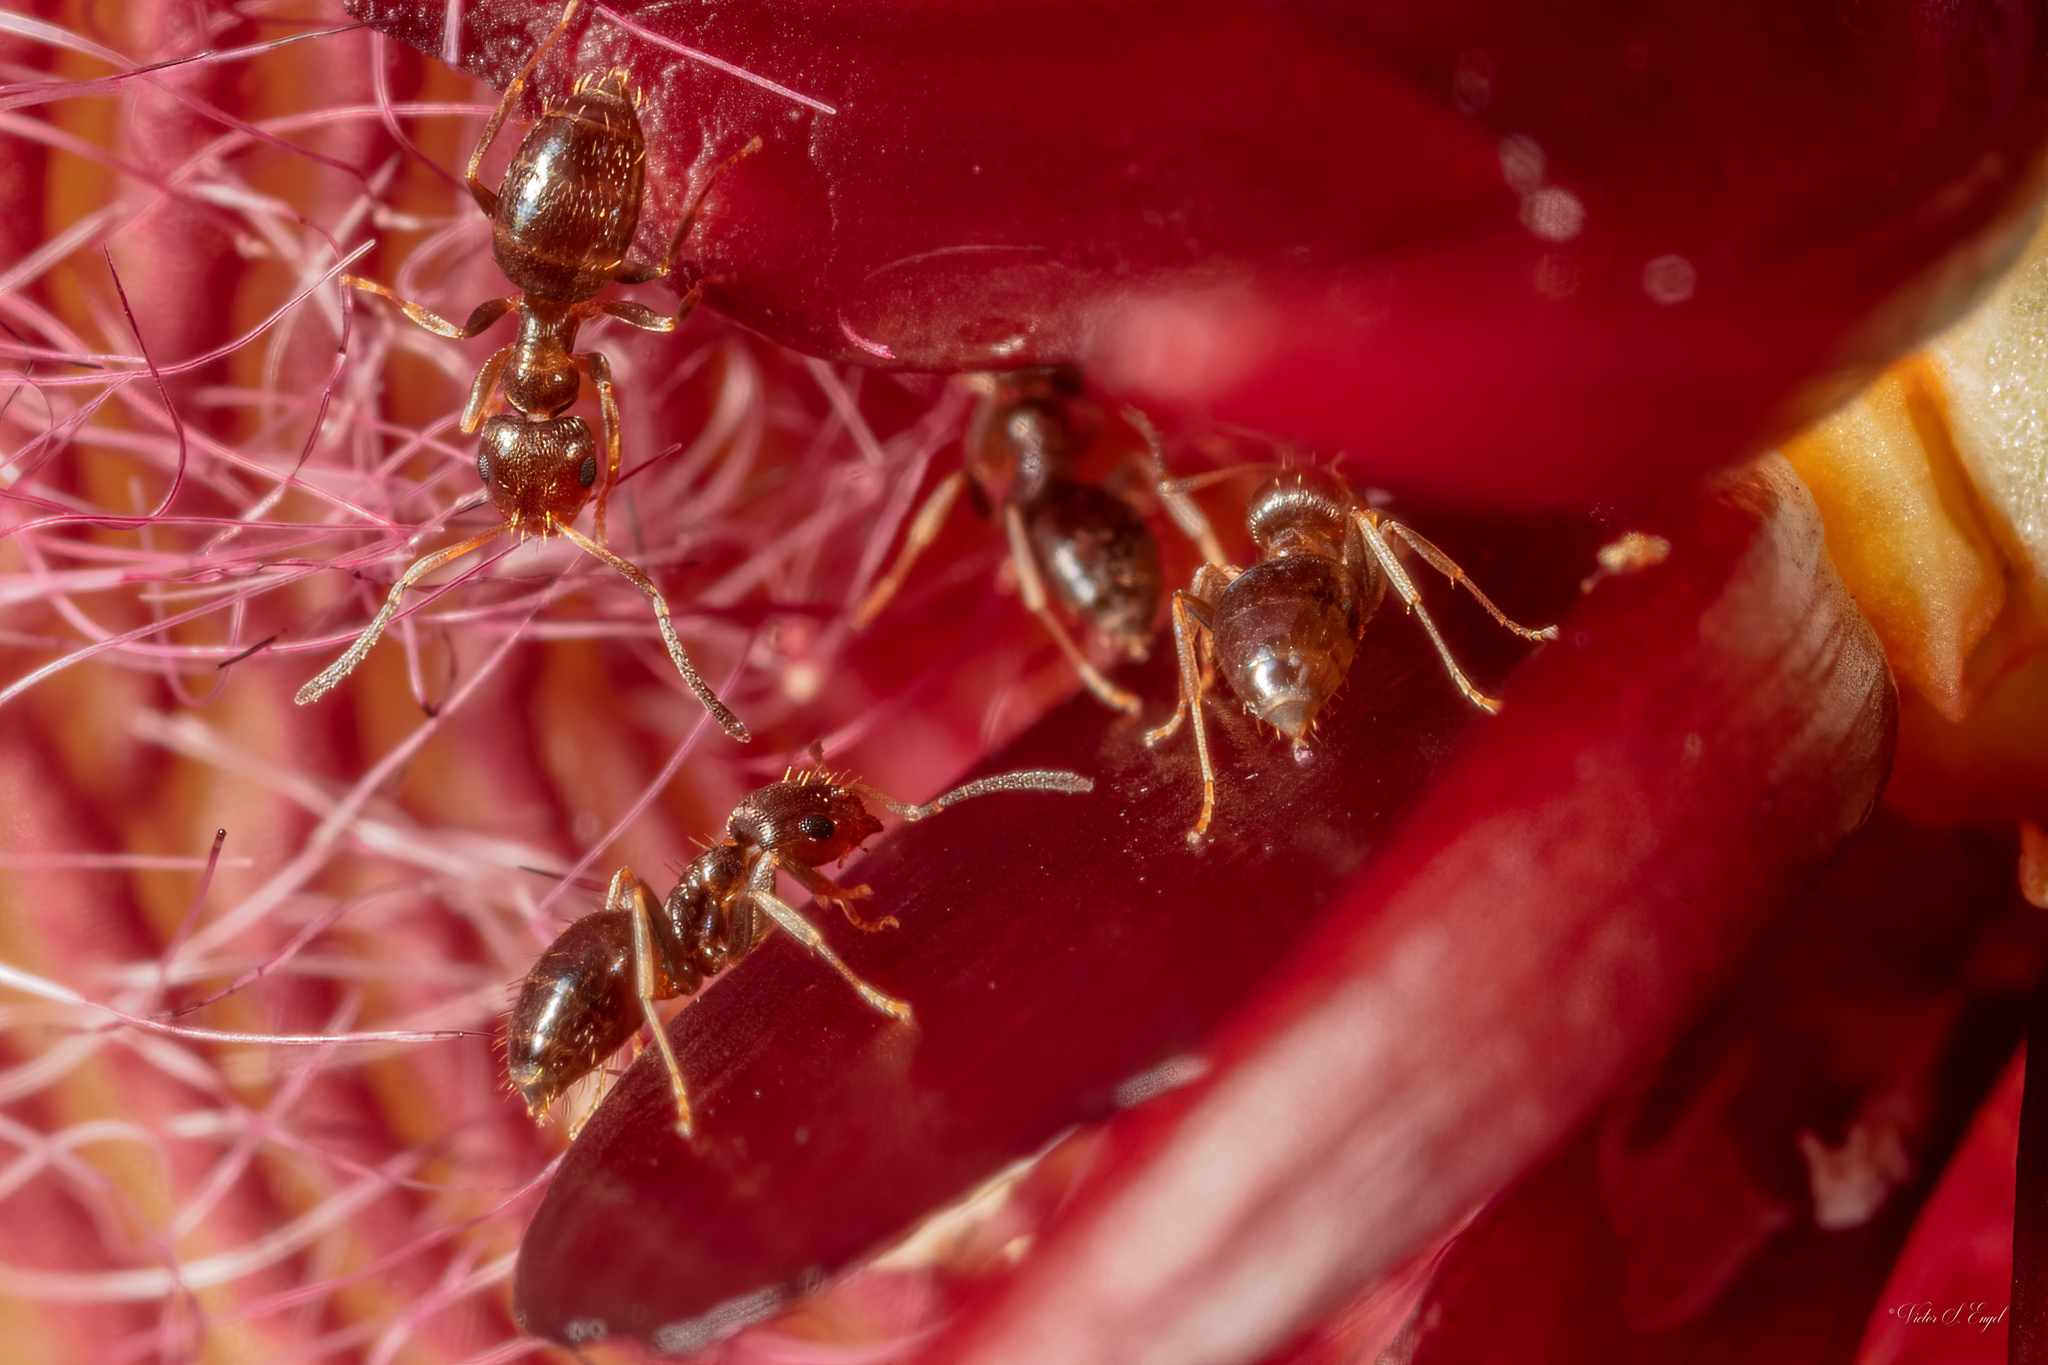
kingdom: Animalia
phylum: Arthropoda
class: Insecta
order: Hymenoptera
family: Formicidae
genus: Brachymyrmex
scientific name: Brachymyrmex patagonicus
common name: Dark rover ant
